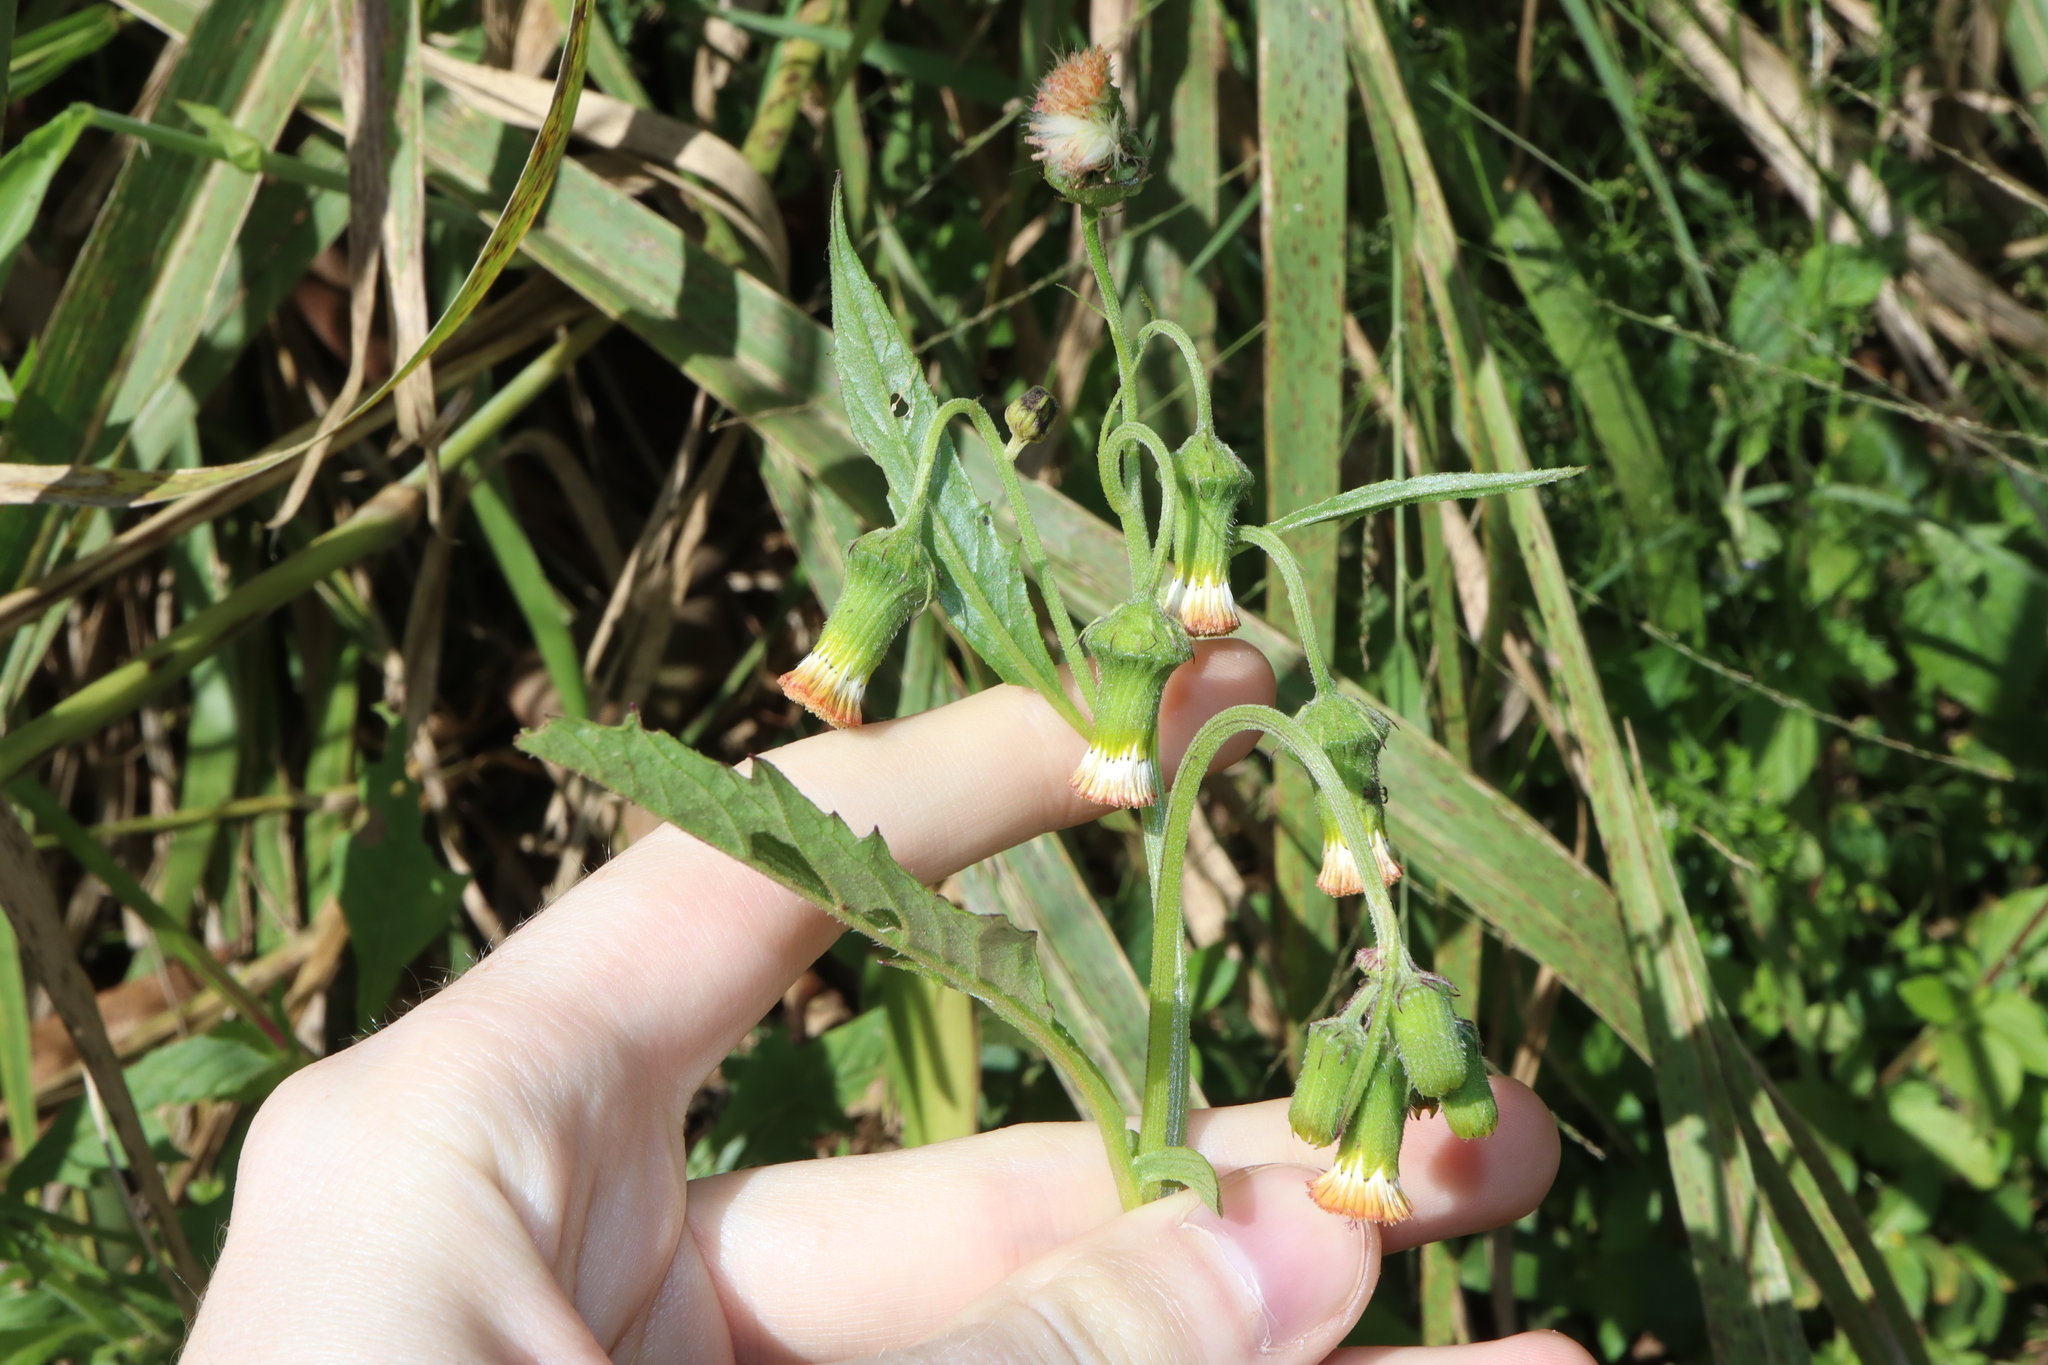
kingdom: Plantae
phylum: Tracheophyta
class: Magnoliopsida
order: Asterales
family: Asteraceae
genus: Crassocephalum
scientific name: Crassocephalum crepidioides
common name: Redflower ragleaf
